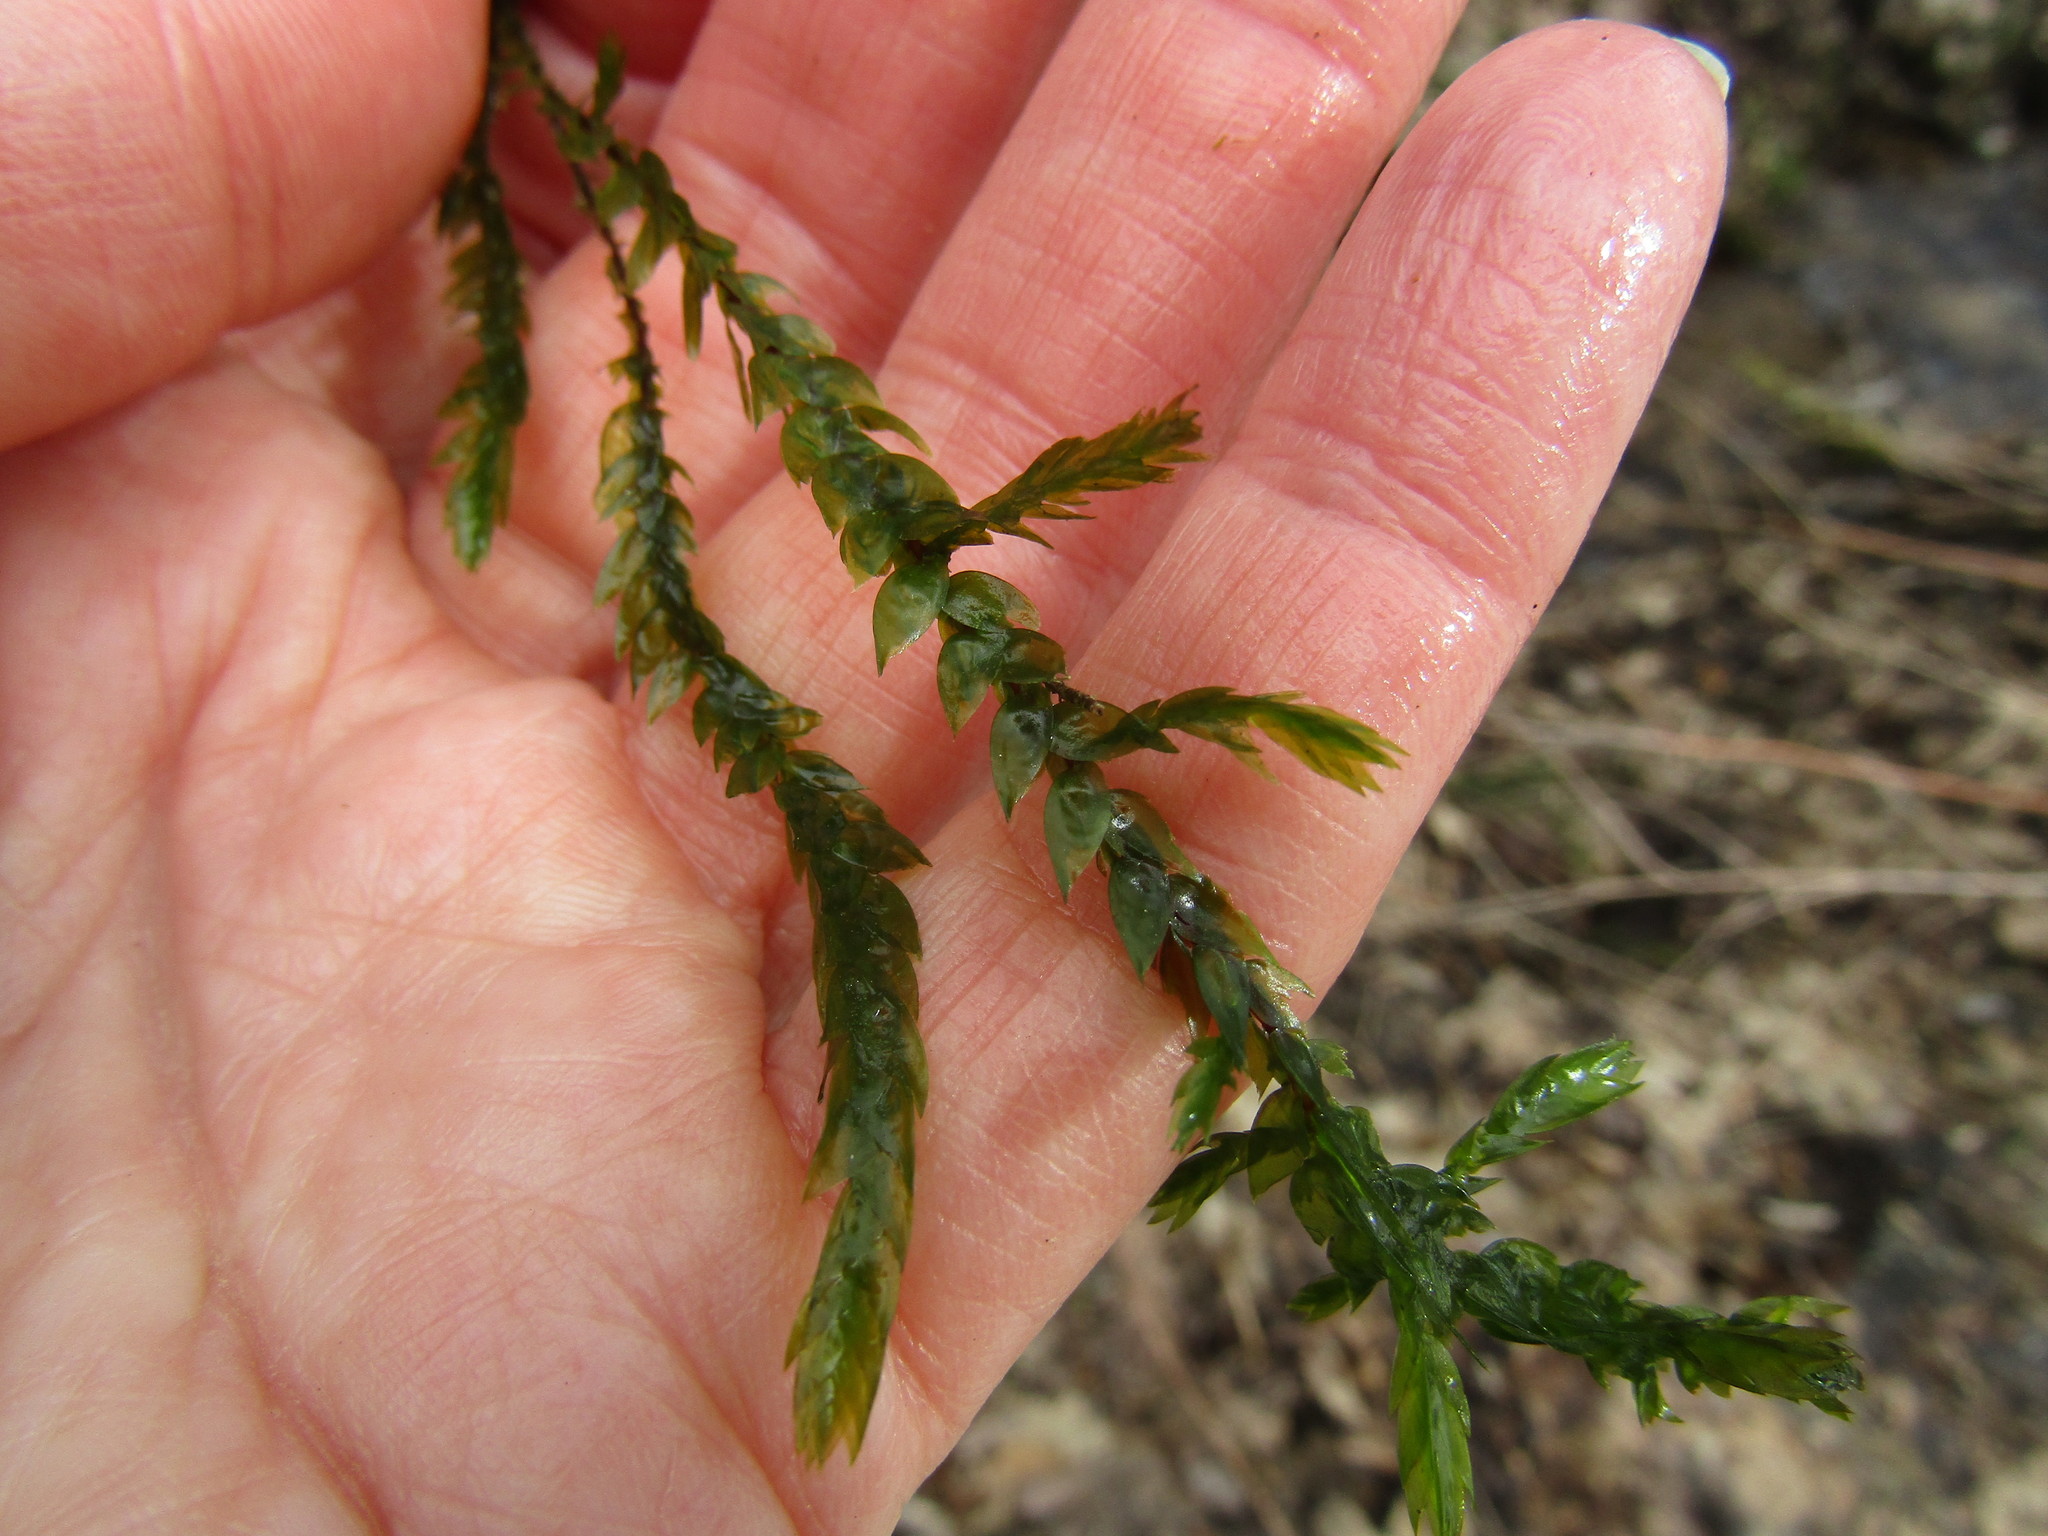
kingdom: Plantae
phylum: Bryophyta
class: Bryopsida
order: Hypnales
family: Fontinalaceae
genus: Fontinalis
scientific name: Fontinalis antipyretica
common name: Greater water-moss
